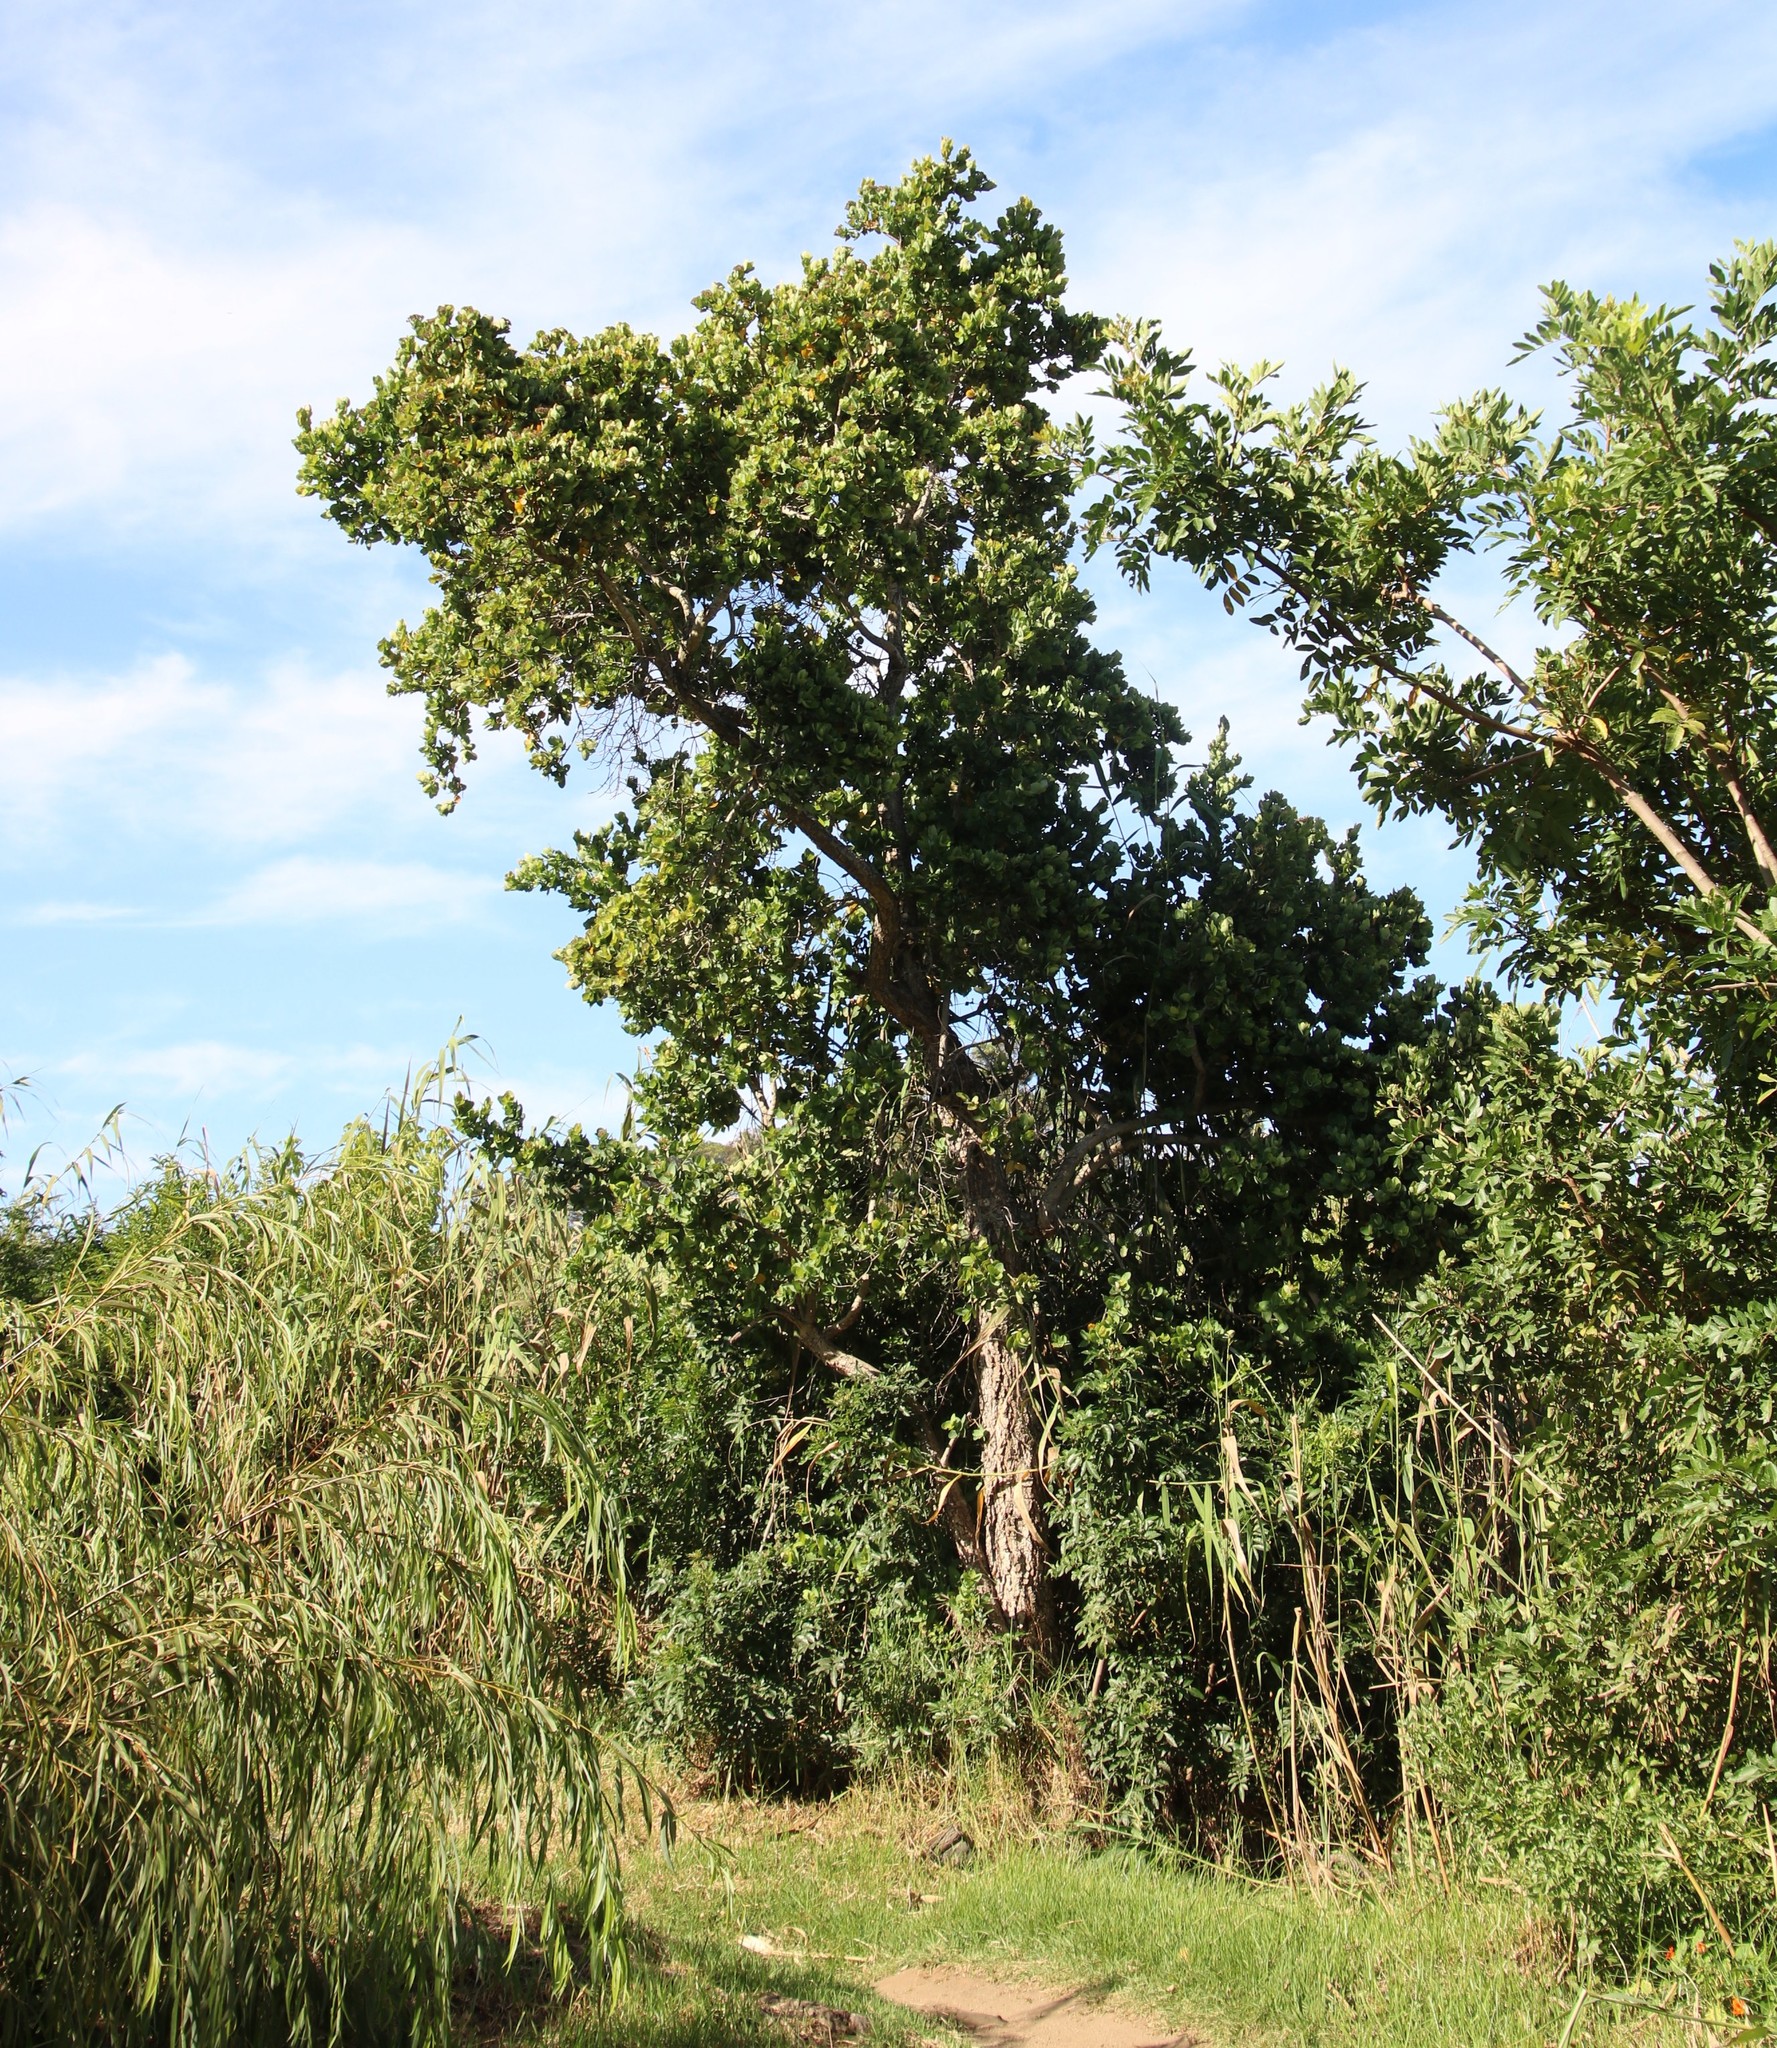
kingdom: Plantae
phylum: Tracheophyta
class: Magnoliopsida
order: Myrtales
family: Myrtaceae
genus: Syzygium
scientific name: Syzygium cordatum
